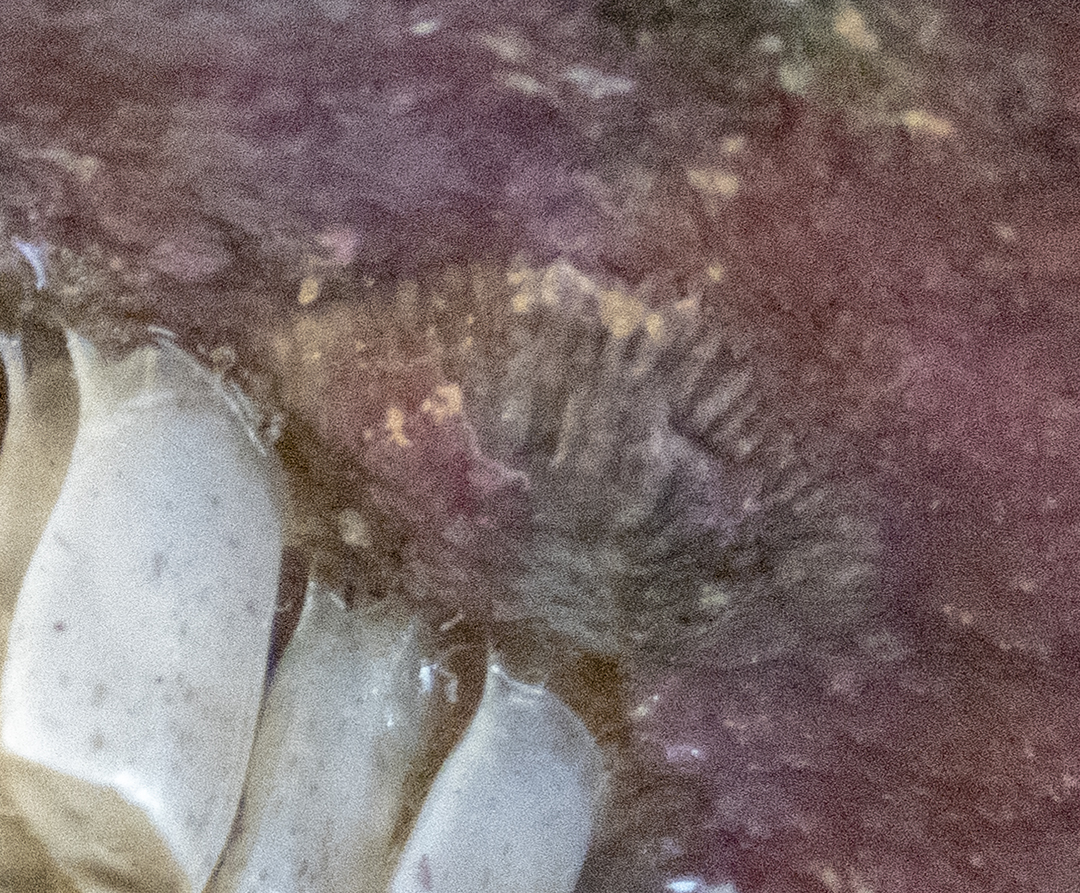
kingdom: Animalia
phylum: Arthropoda
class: Maxillopoda
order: Sessilia
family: Tetraclitidae
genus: Tetraclitella
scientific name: Tetraclitella depressa
